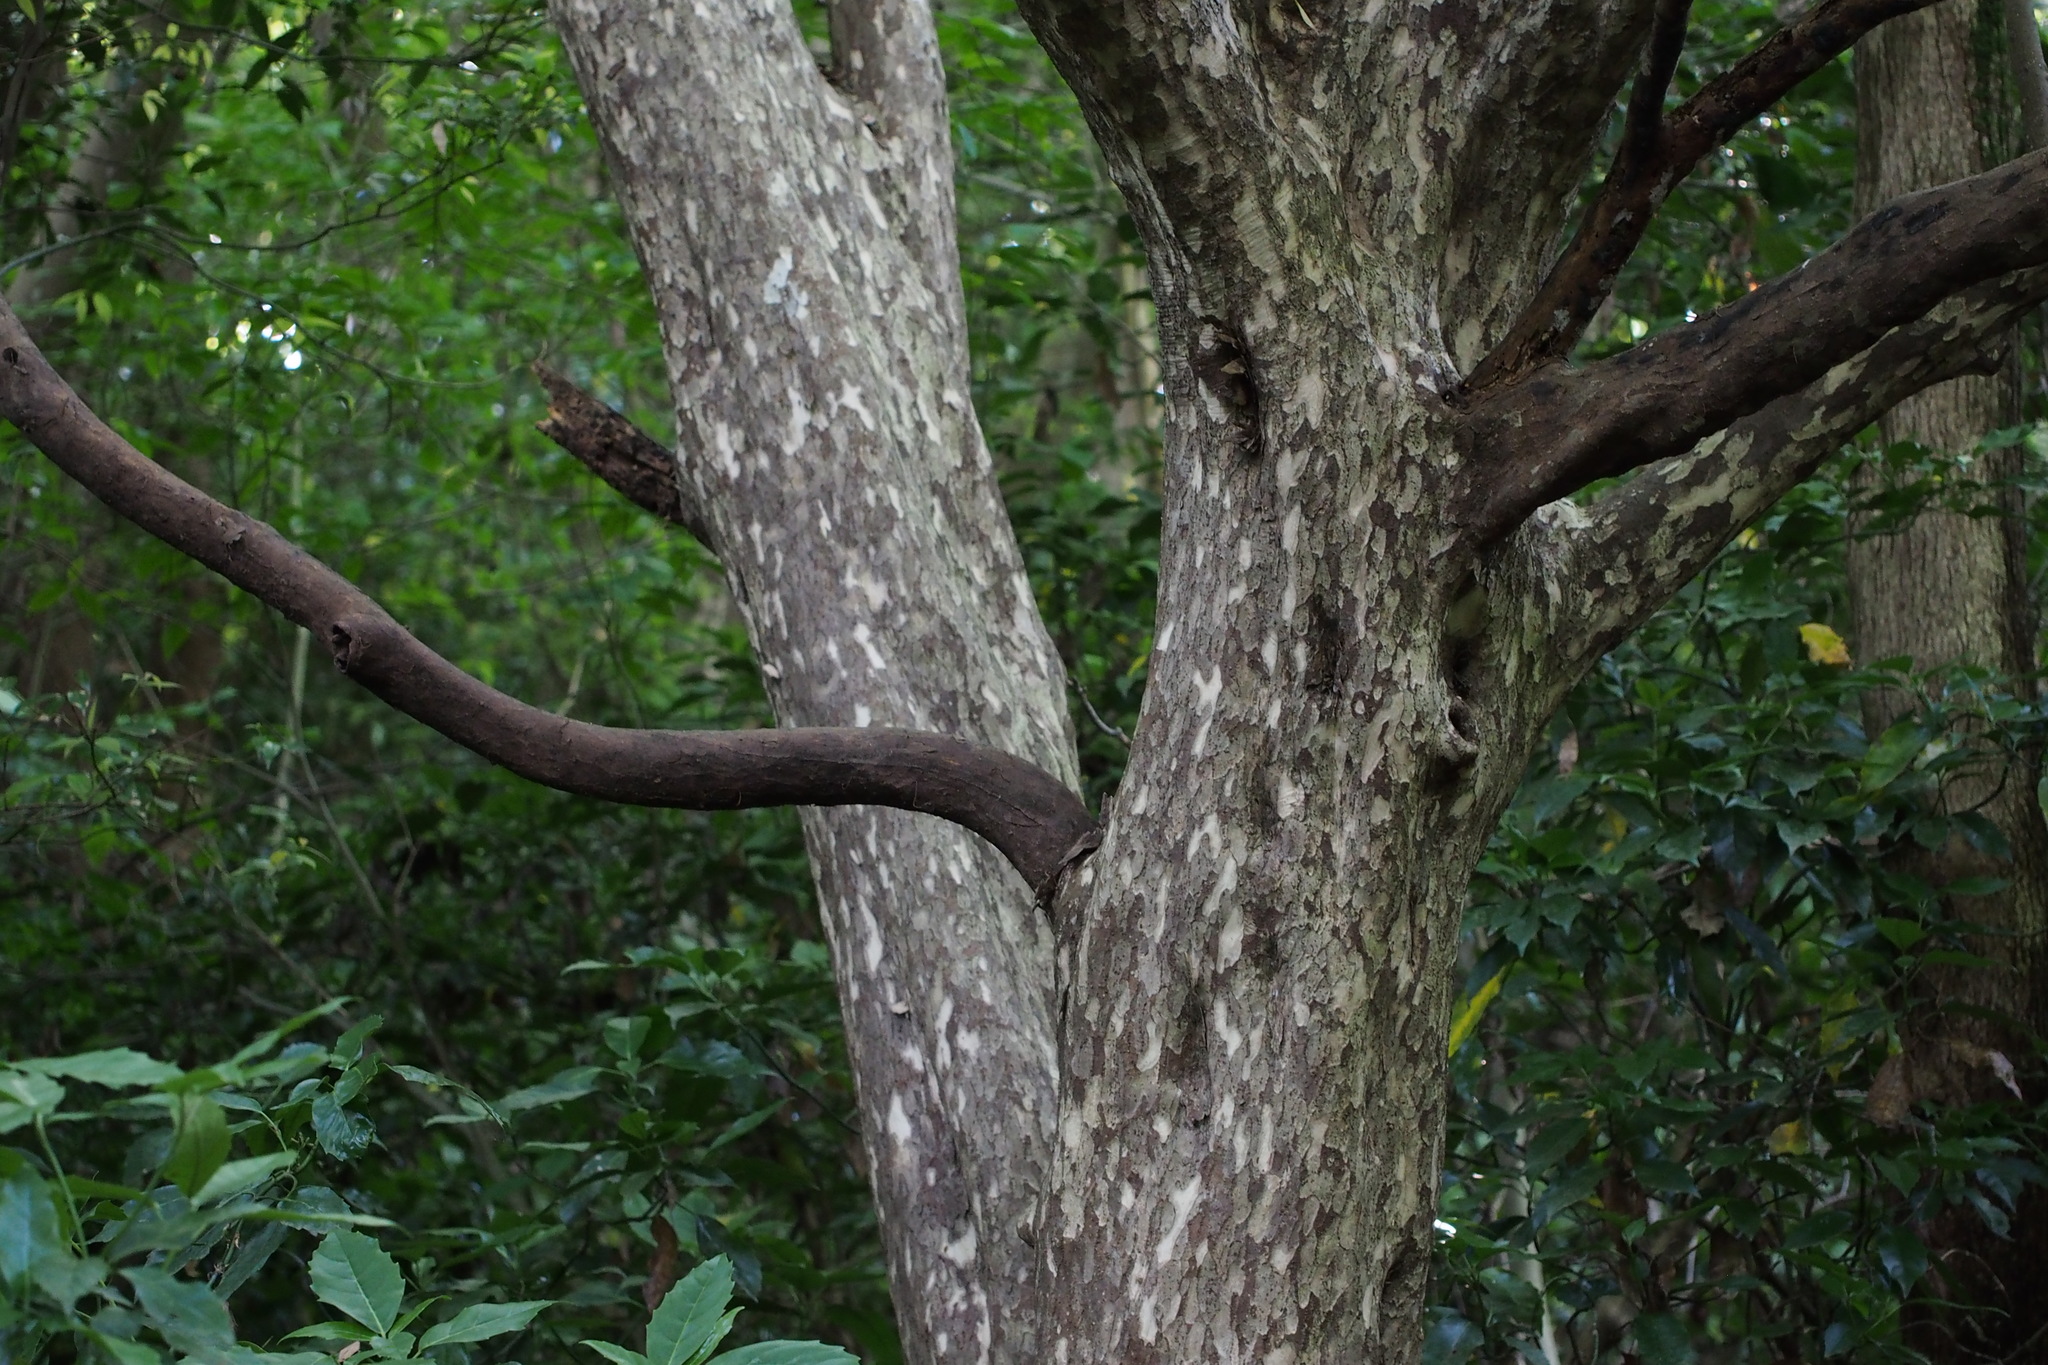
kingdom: Plantae
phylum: Tracheophyta
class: Magnoliopsida
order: Laurales
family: Lauraceae
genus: Litsea
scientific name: Litsea coreana
